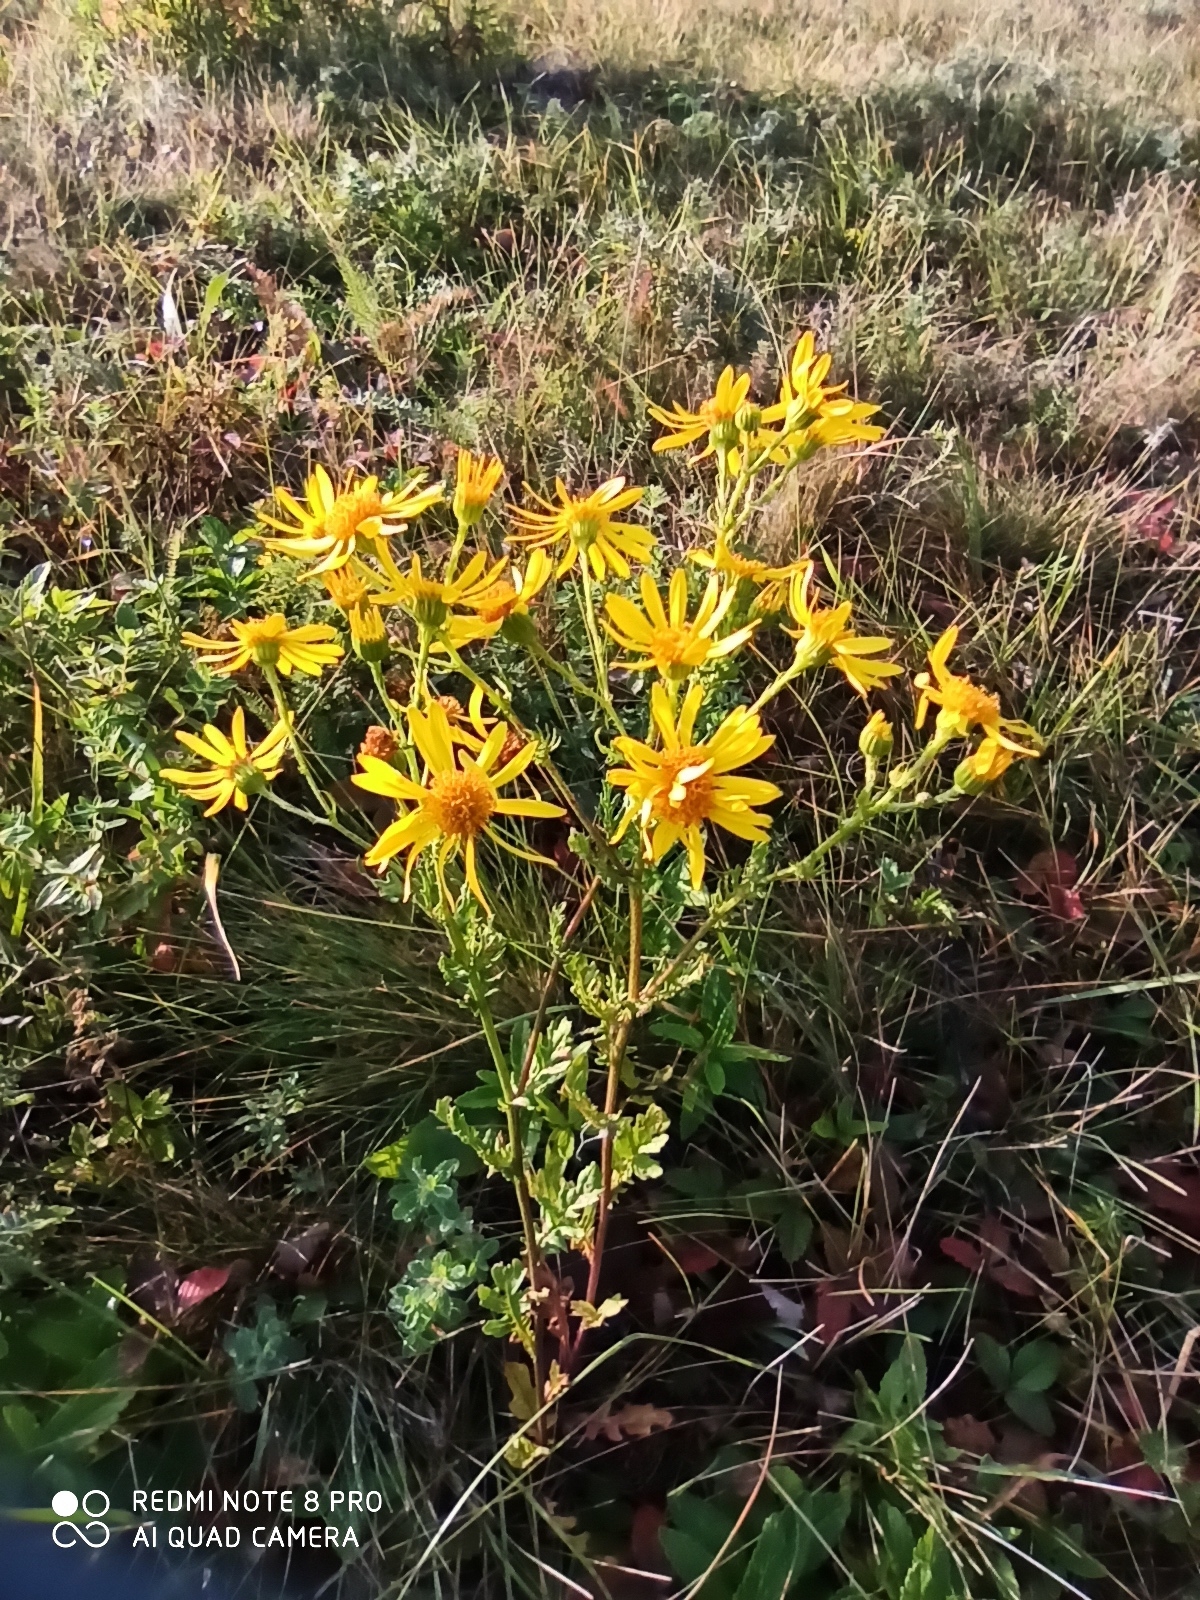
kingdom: Plantae
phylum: Tracheophyta
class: Magnoliopsida
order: Asterales
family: Asteraceae
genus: Jacobaea
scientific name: Jacobaea vulgaris
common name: Stinking willie
